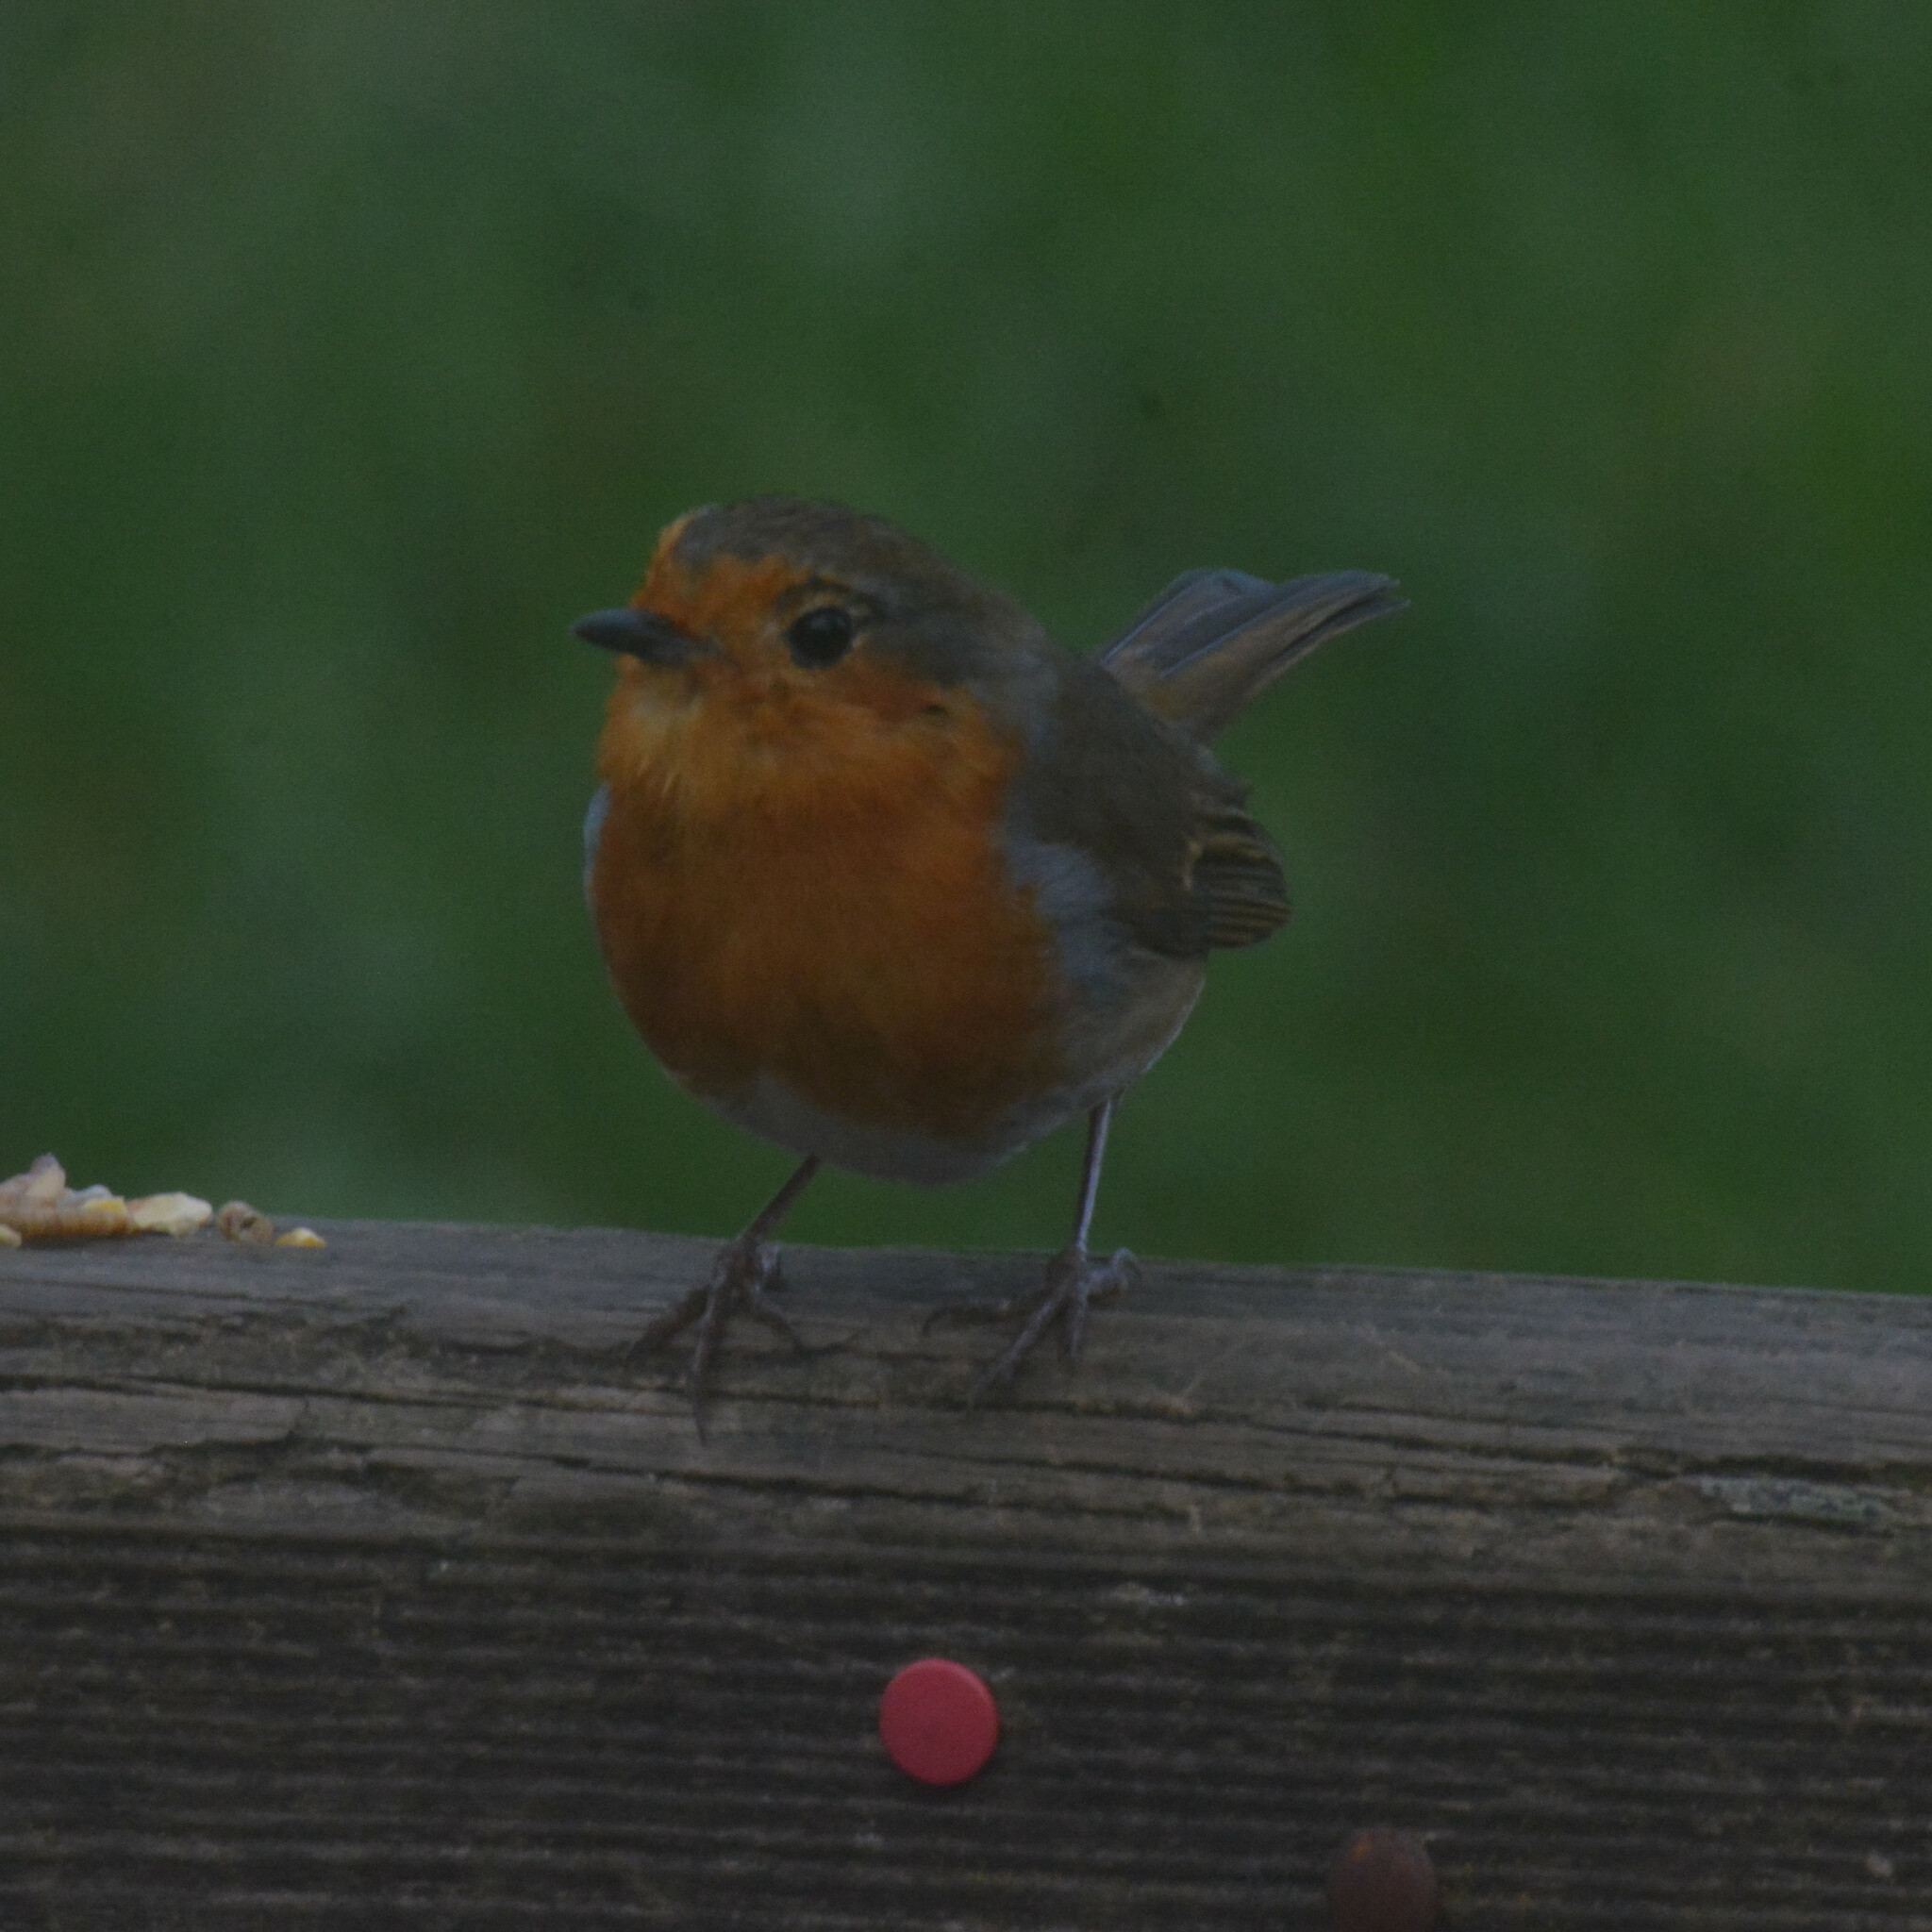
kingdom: Animalia
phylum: Chordata
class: Aves
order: Passeriformes
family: Muscicapidae
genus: Erithacus
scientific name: Erithacus rubecula
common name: European robin
